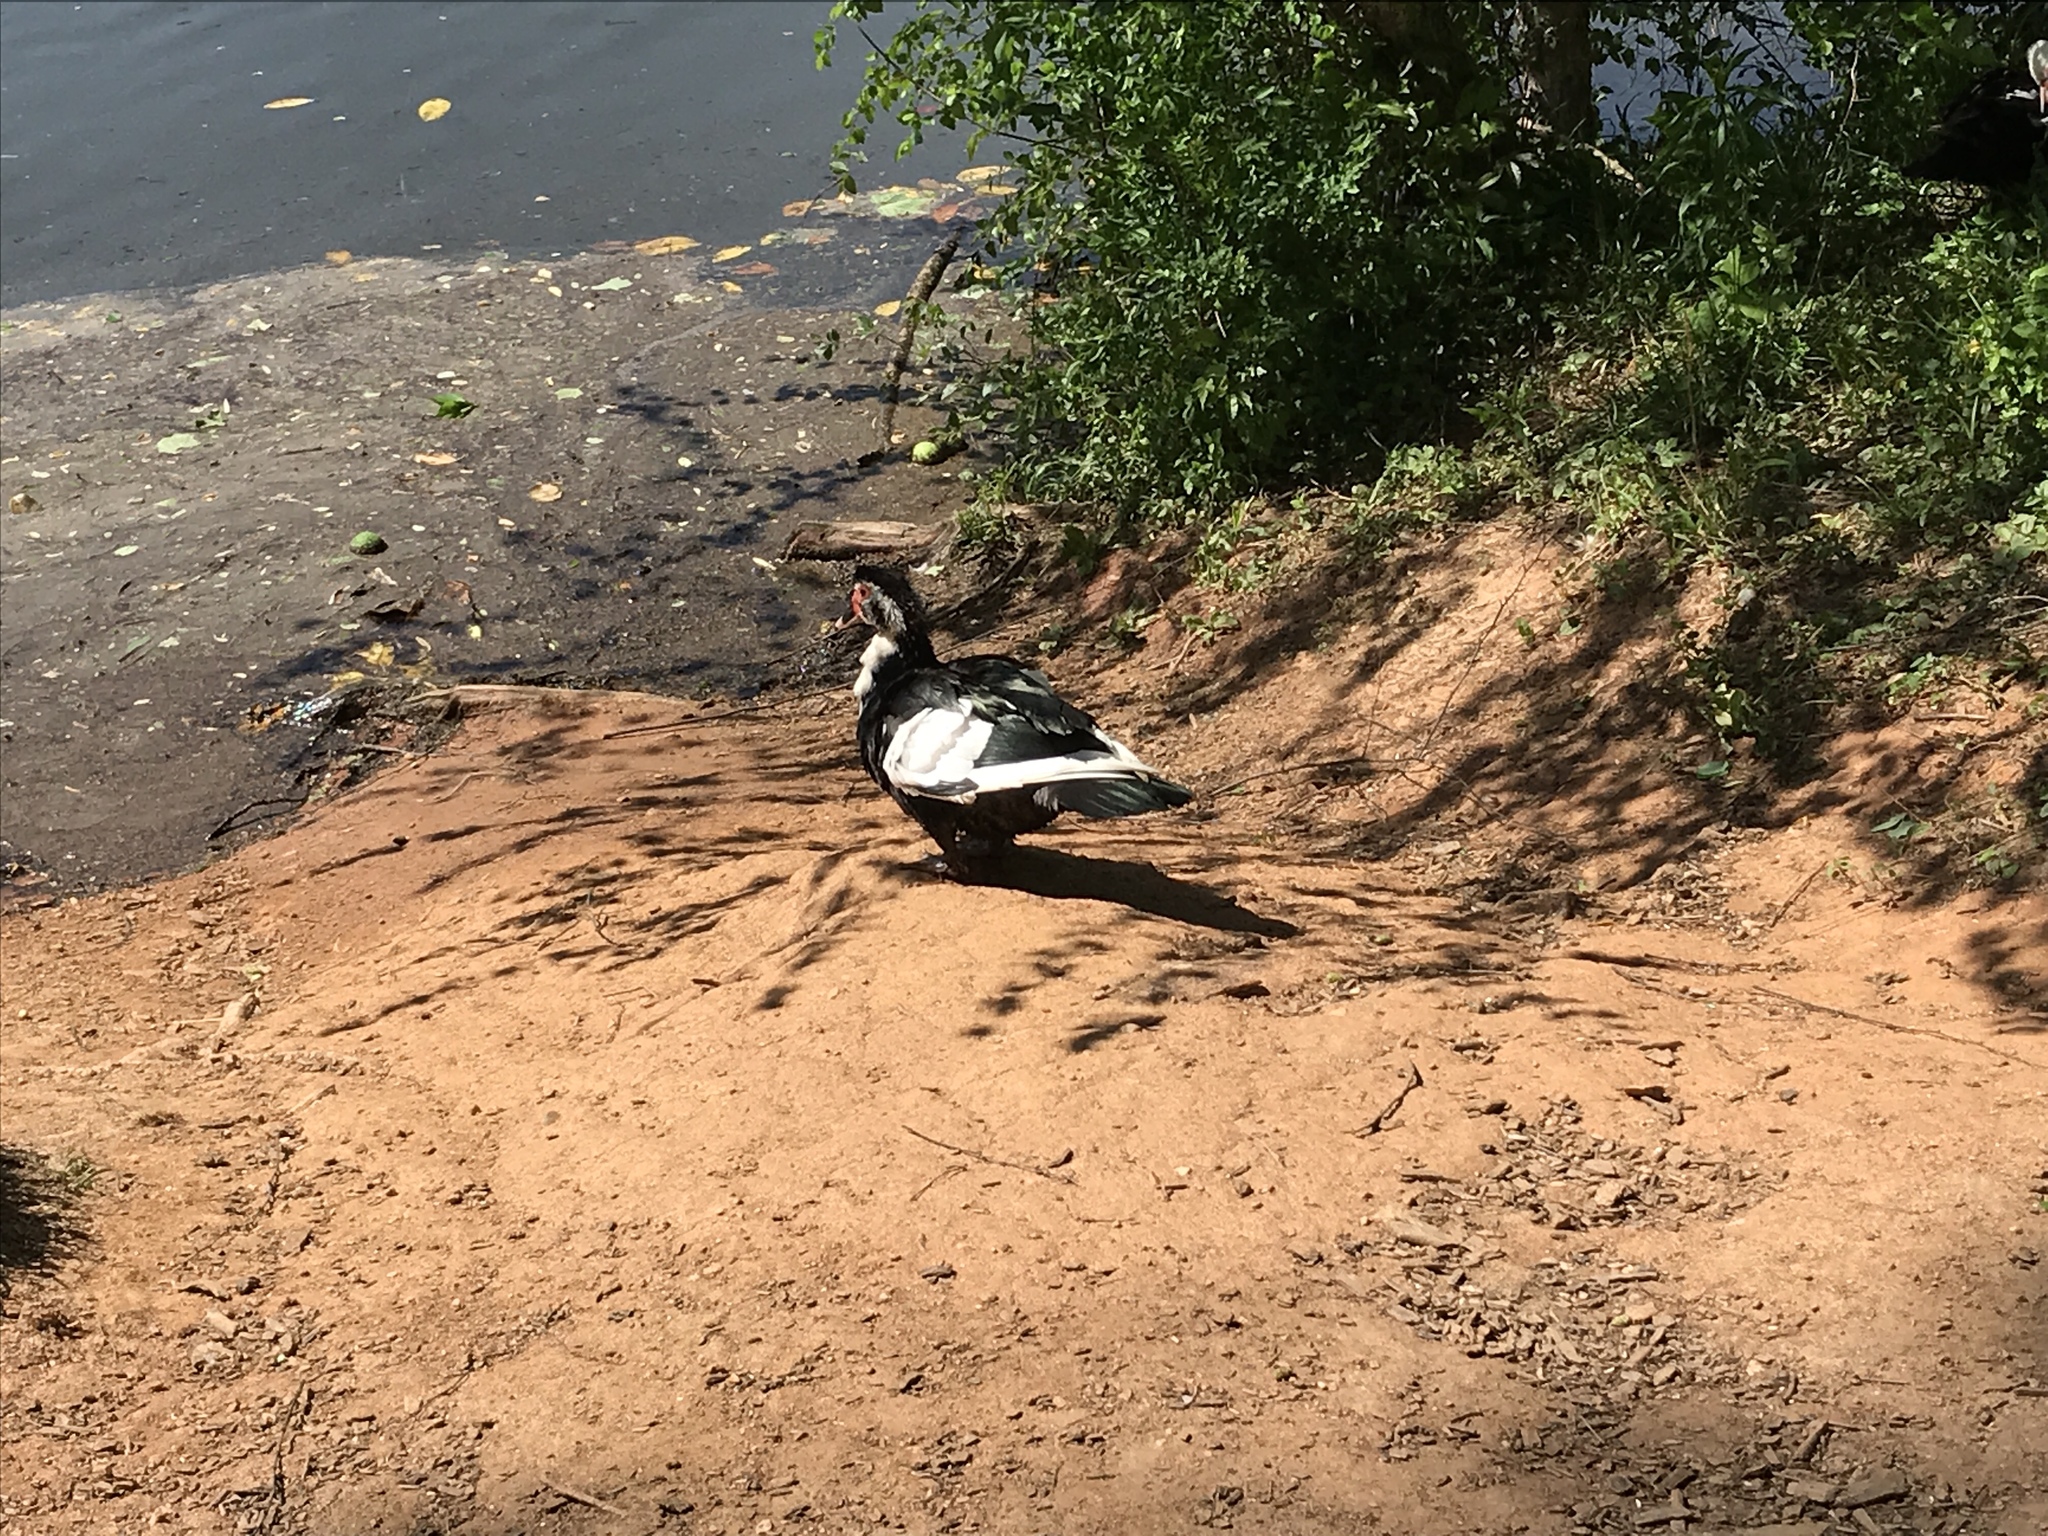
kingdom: Animalia
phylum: Chordata
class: Aves
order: Anseriformes
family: Anatidae
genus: Cairina
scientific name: Cairina moschata
